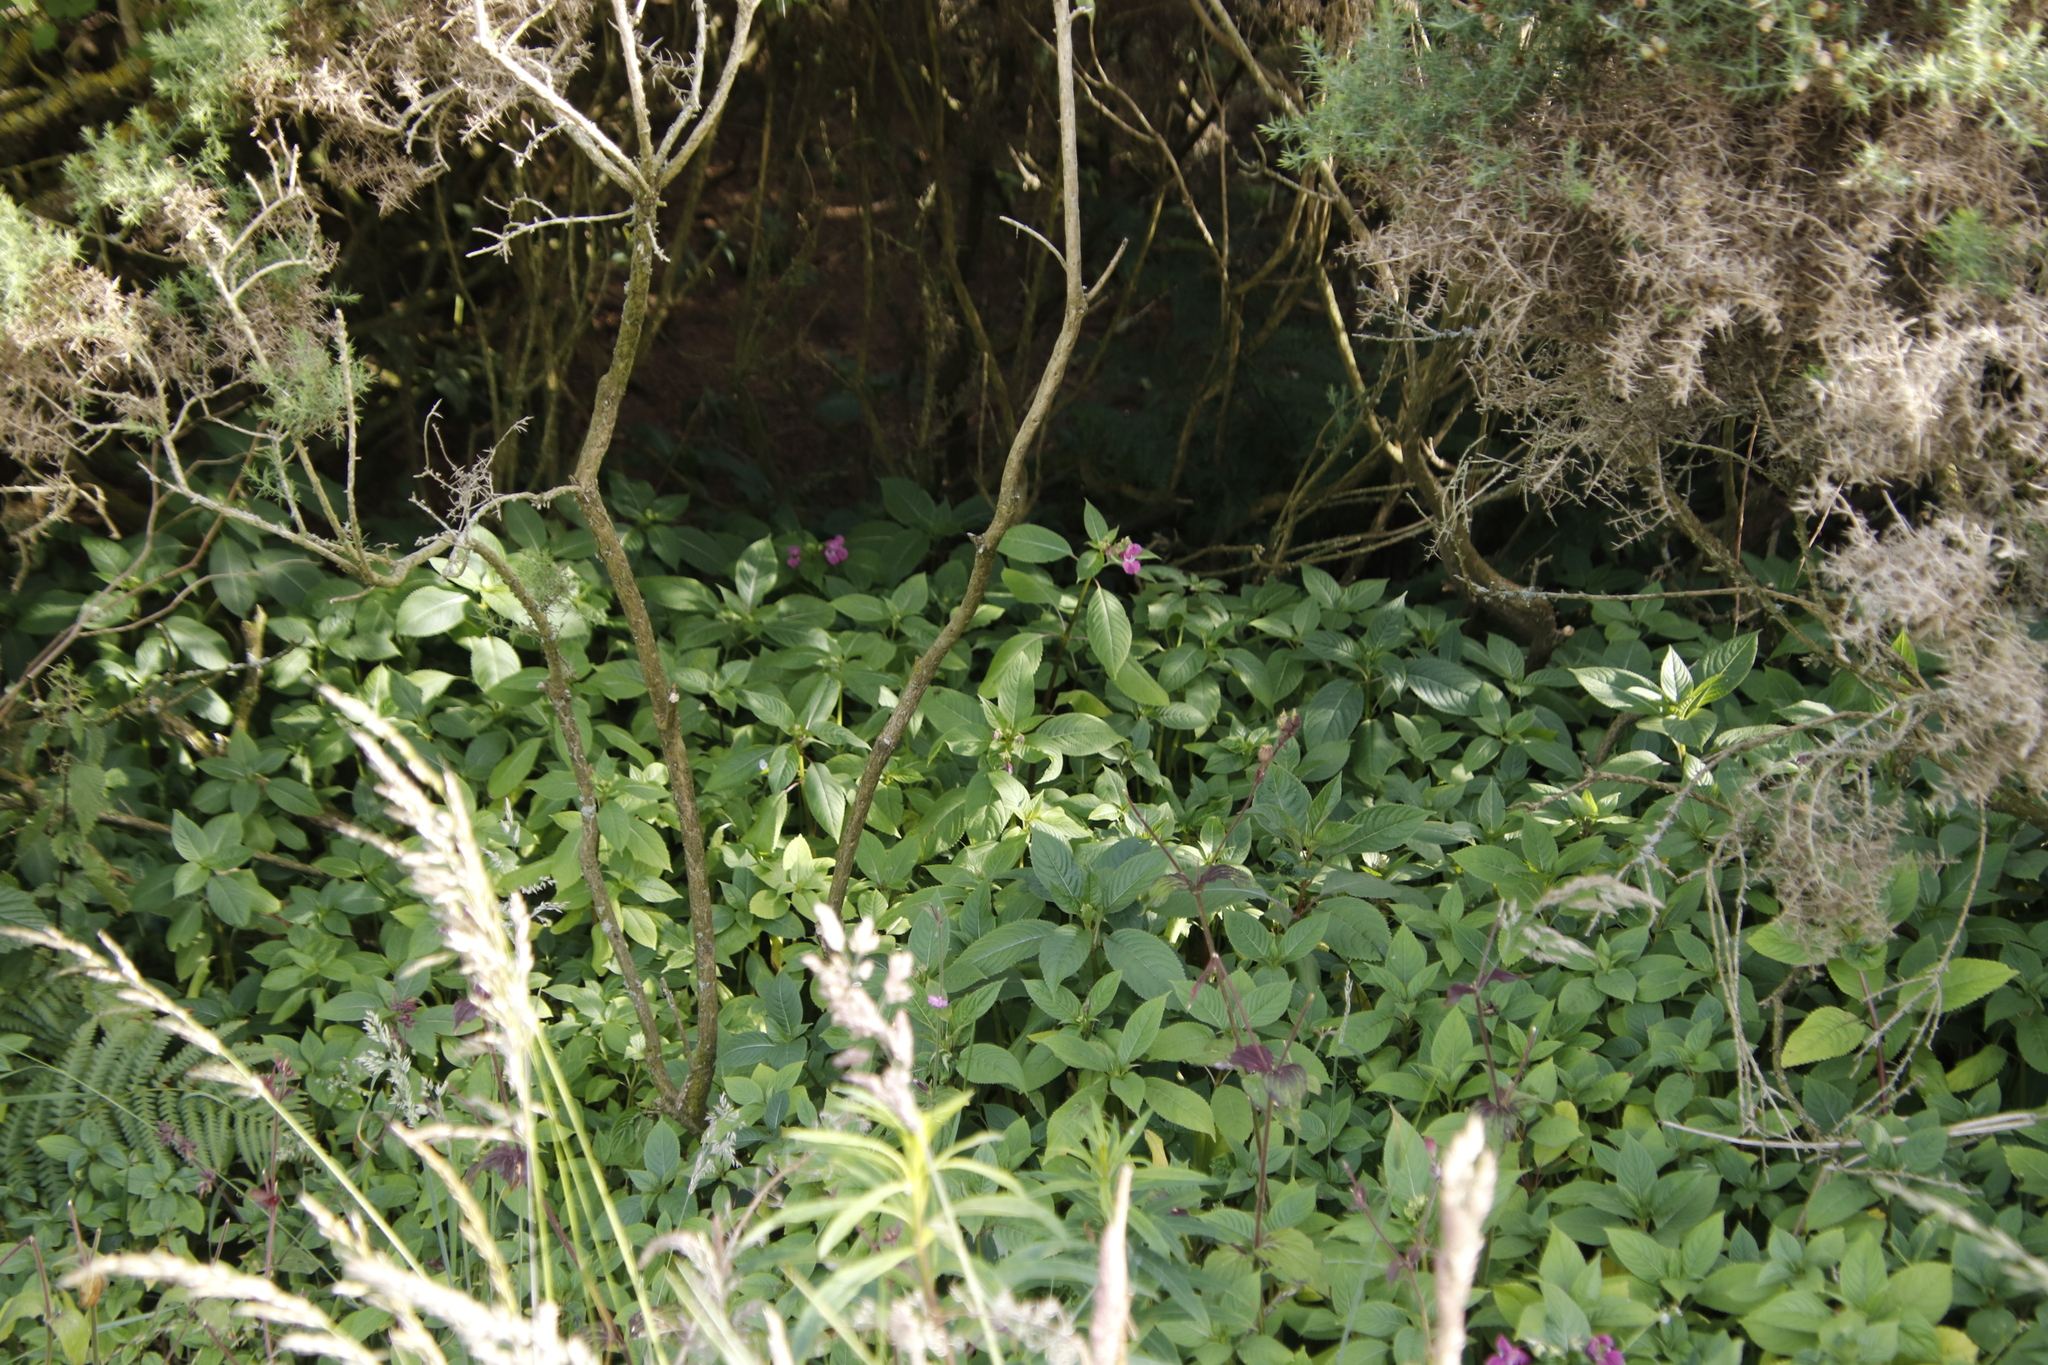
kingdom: Plantae
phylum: Tracheophyta
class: Magnoliopsida
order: Ericales
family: Balsaminaceae
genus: Impatiens
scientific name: Impatiens glandulifera
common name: Himalayan balsam
